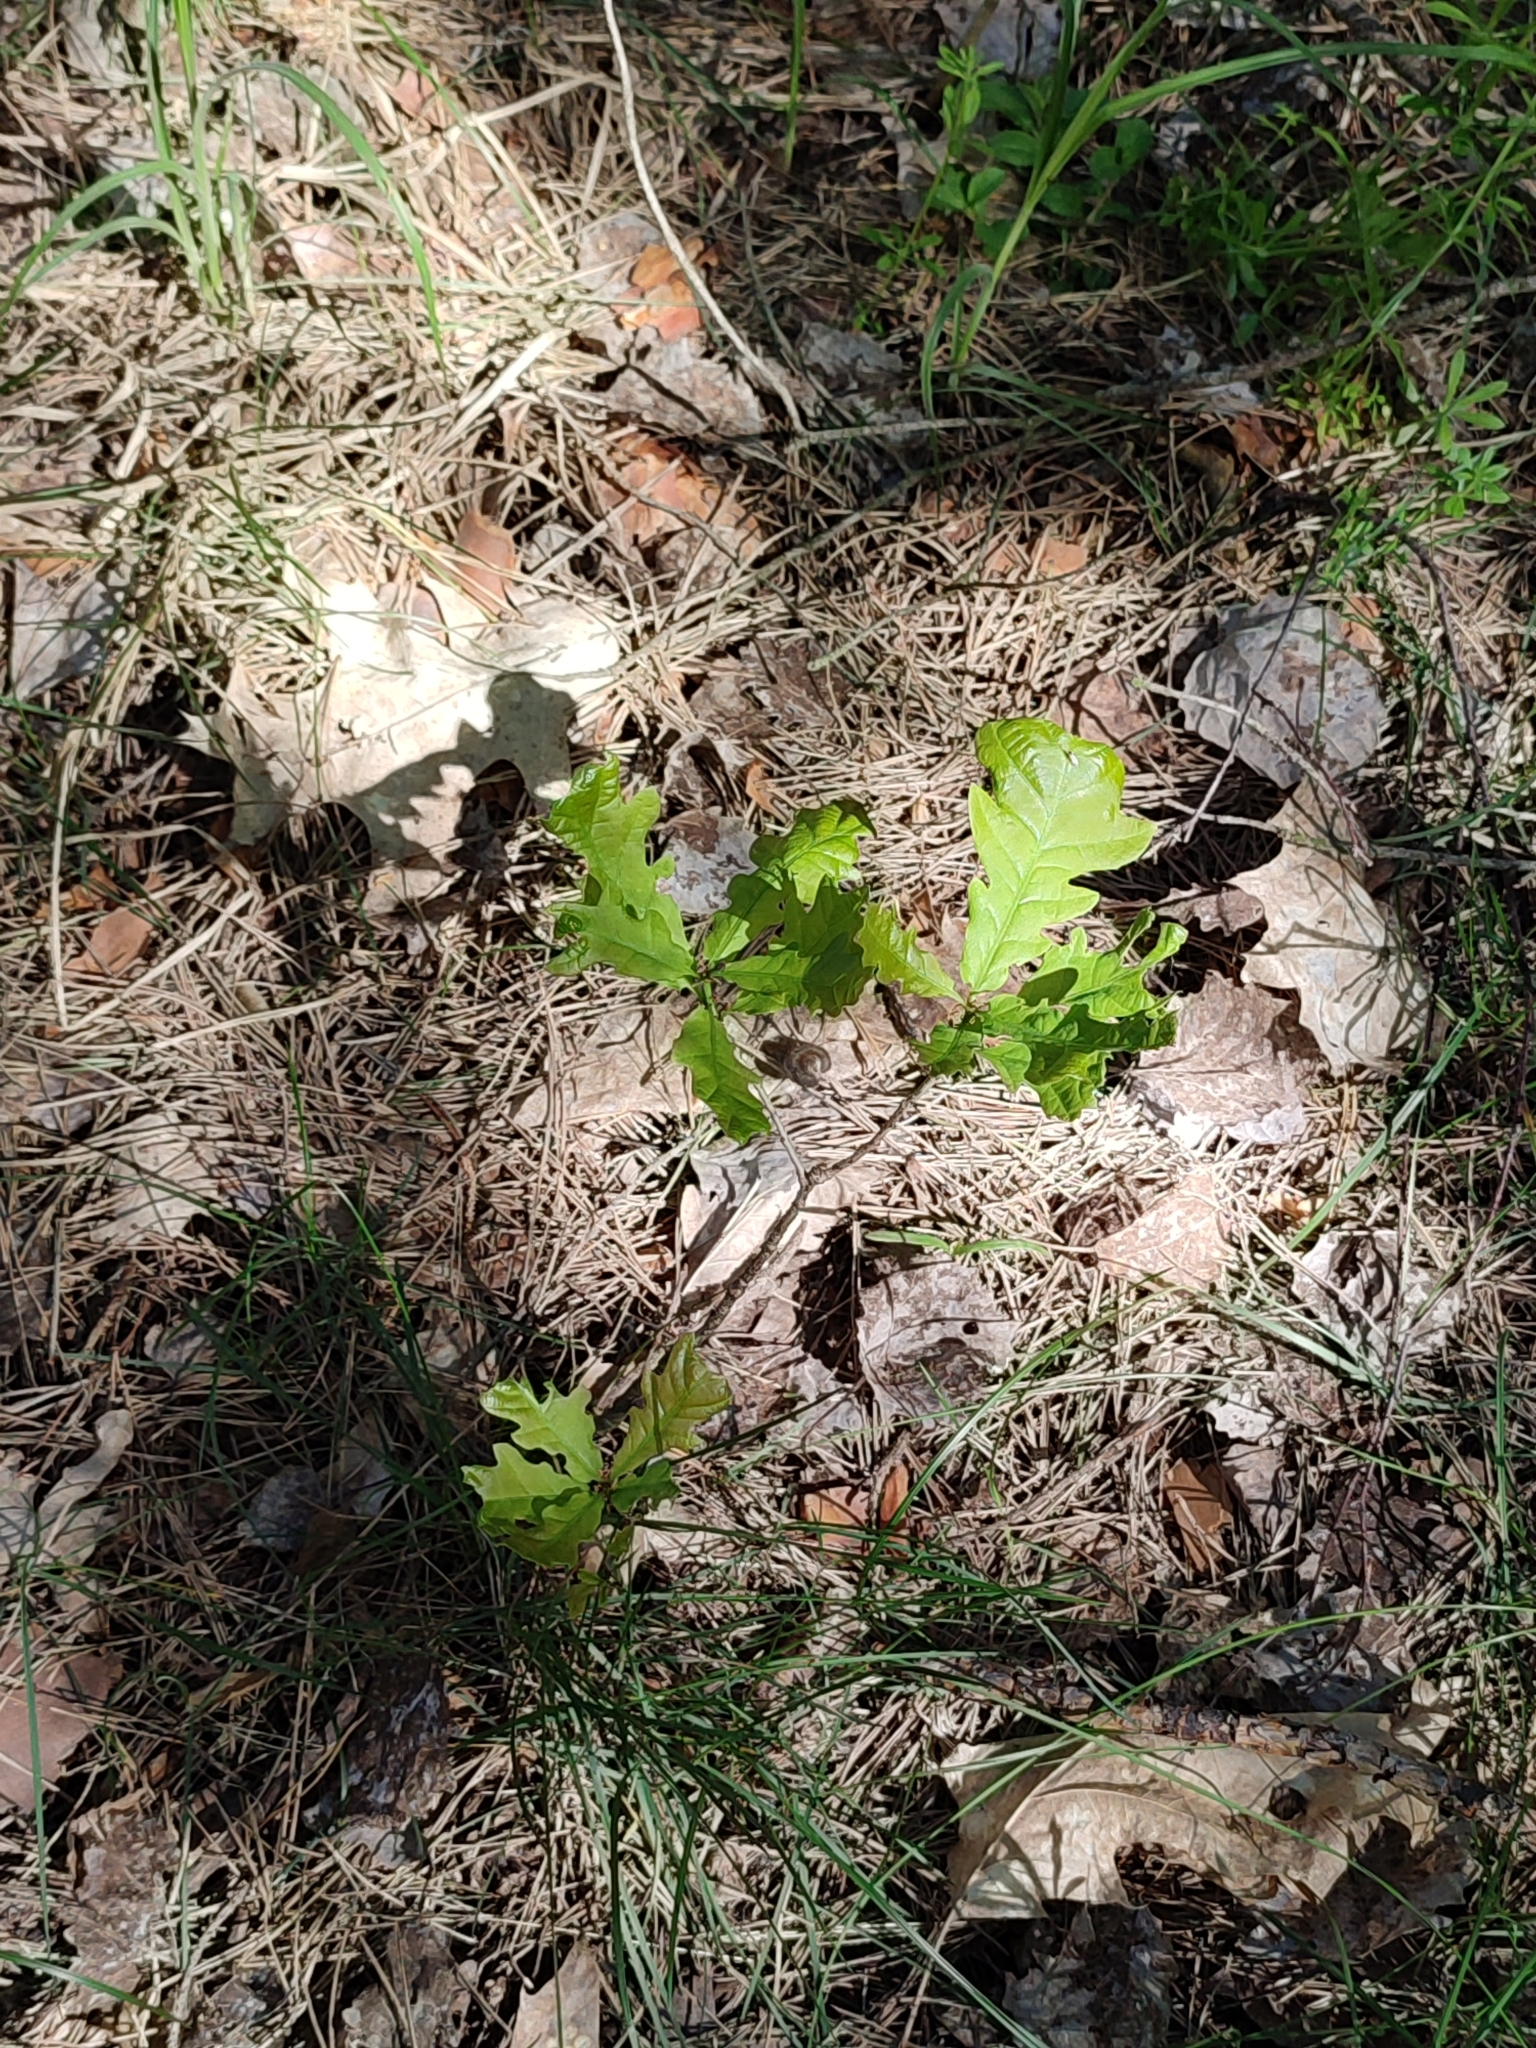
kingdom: Plantae
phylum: Tracheophyta
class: Magnoliopsida
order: Fagales
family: Fagaceae
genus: Quercus
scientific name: Quercus robur
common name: Pedunculate oak
